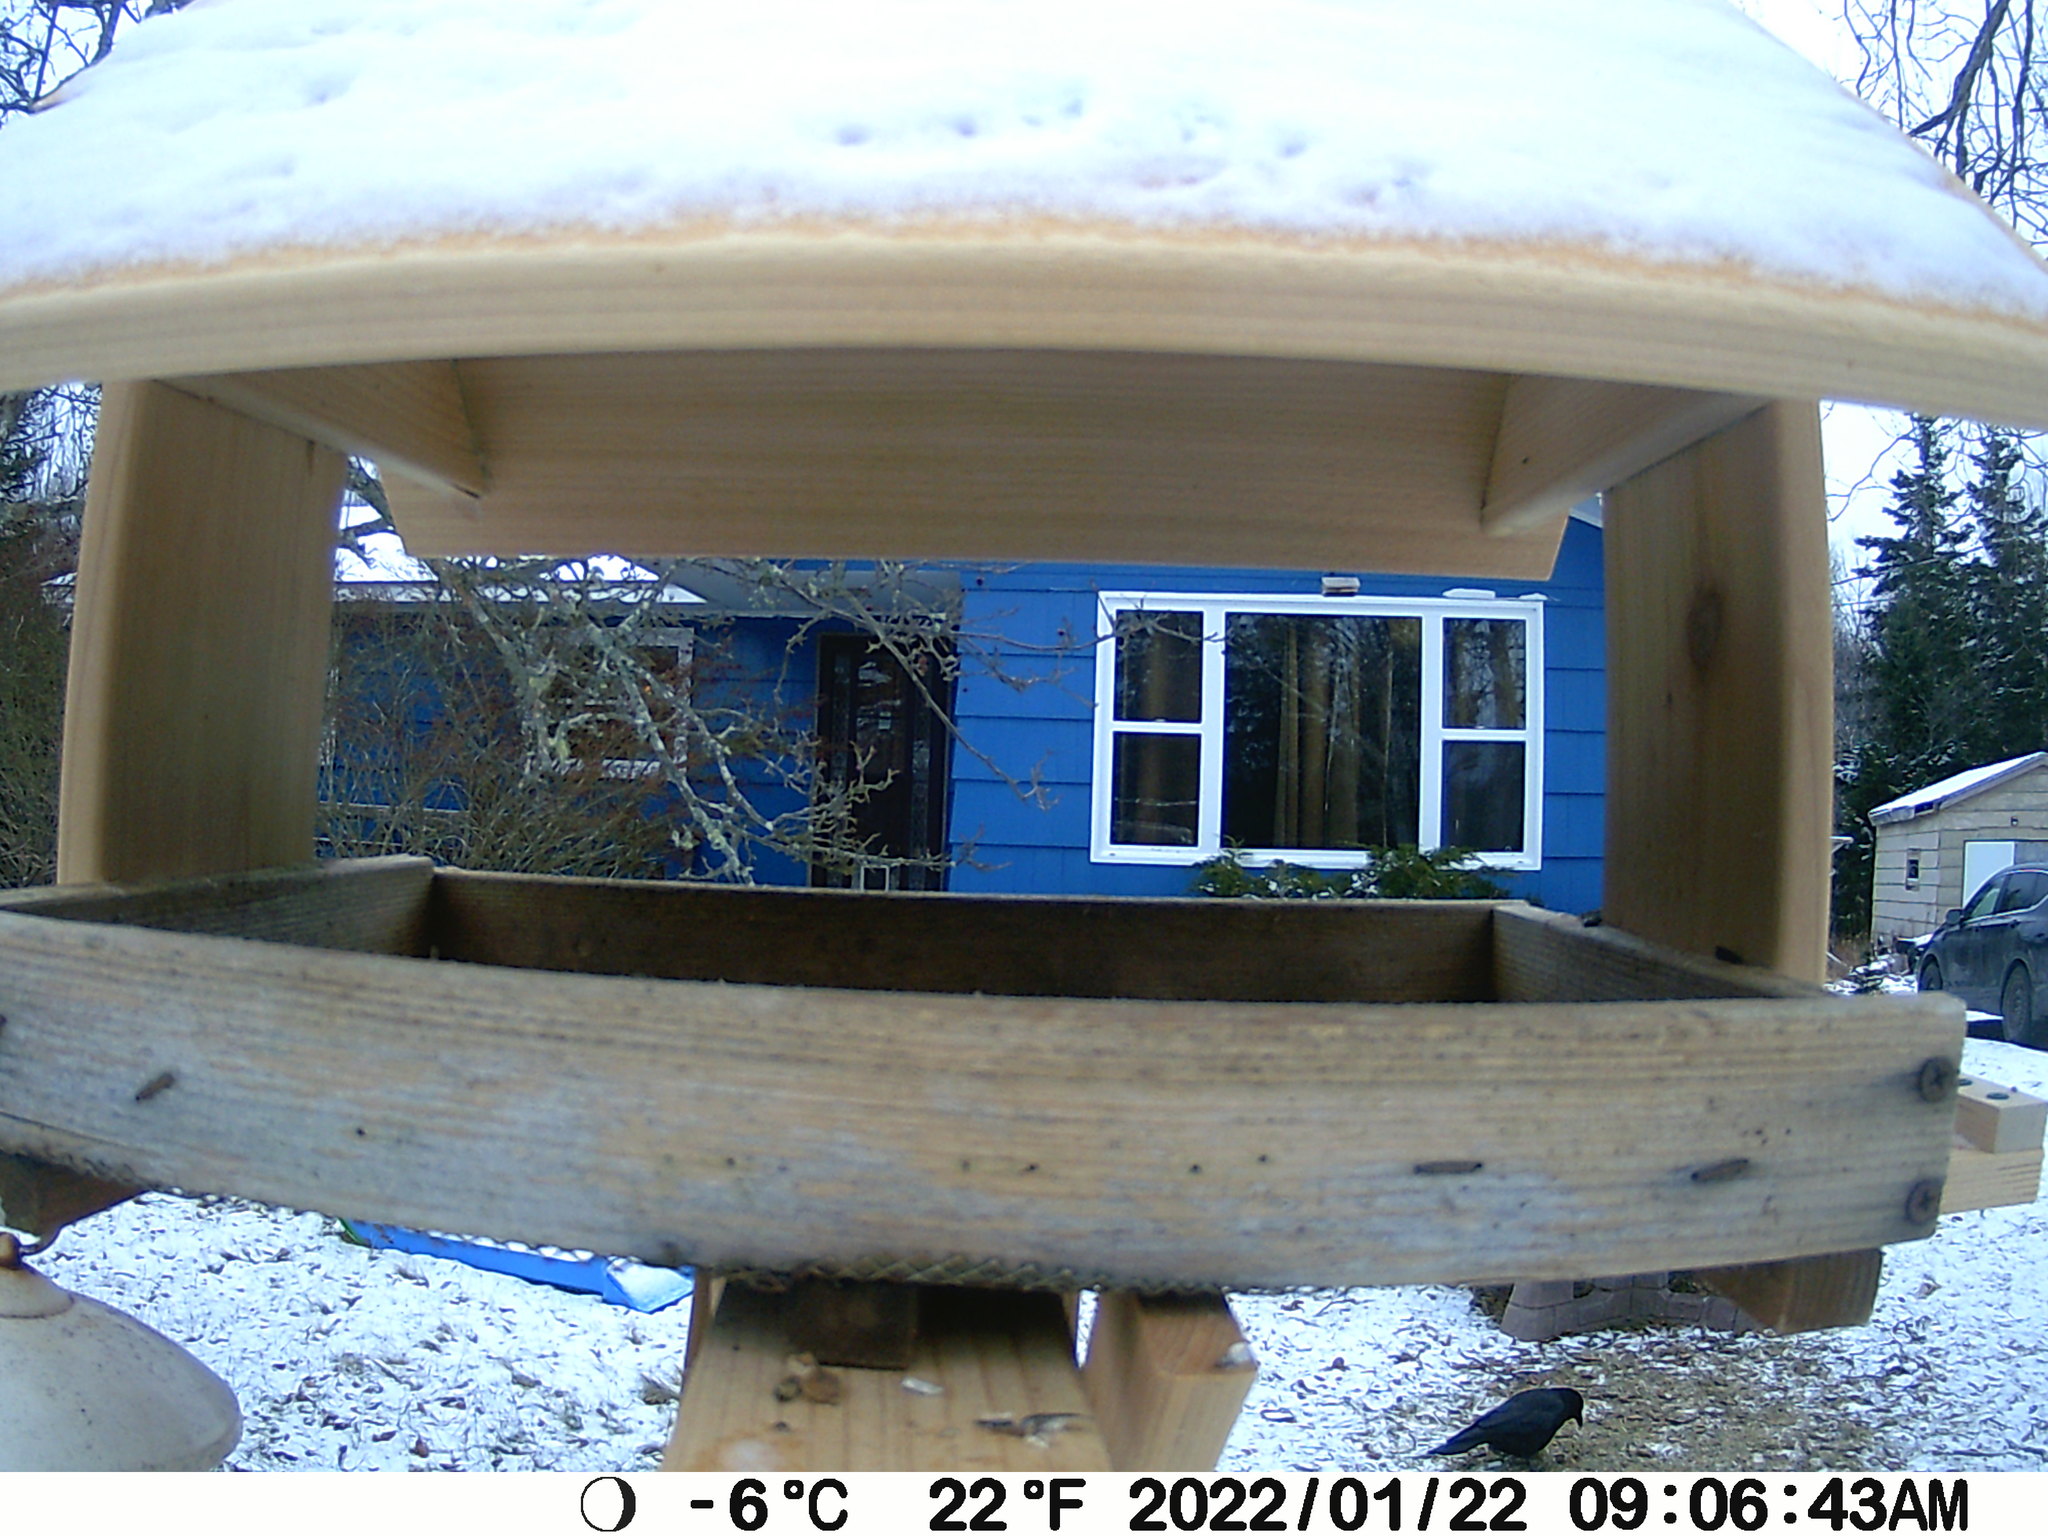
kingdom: Animalia
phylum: Chordata
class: Aves
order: Passeriformes
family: Corvidae
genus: Corvus
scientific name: Corvus brachyrhynchos
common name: American crow
